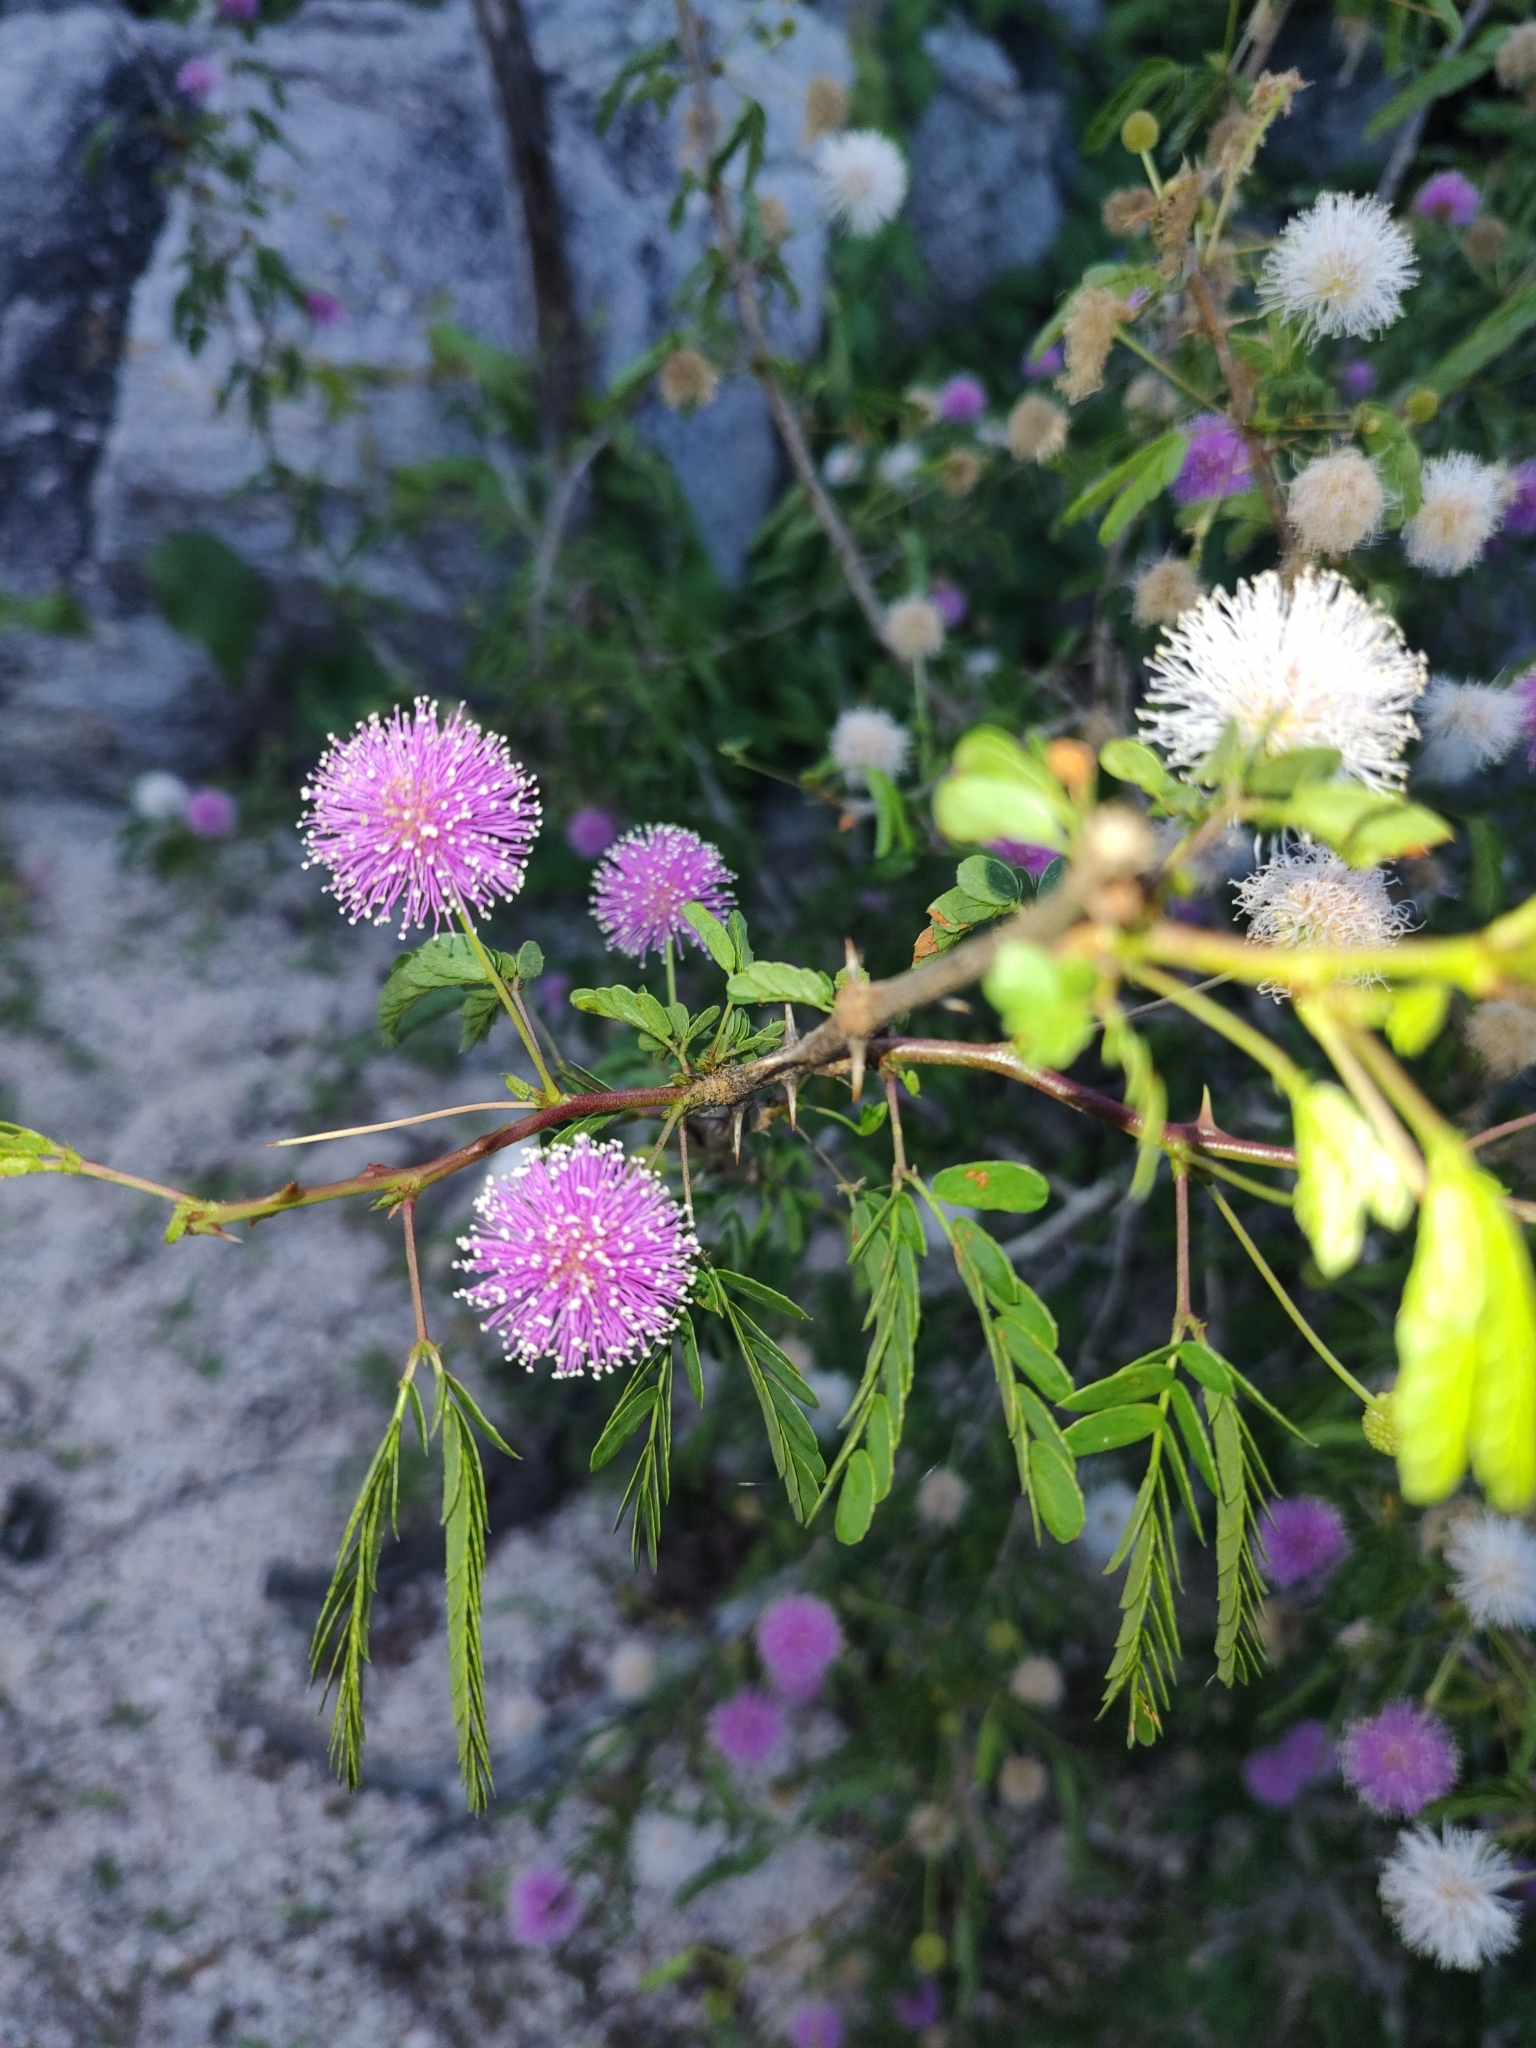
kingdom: Plantae
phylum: Tracheophyta
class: Magnoliopsida
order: Fabales
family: Fabaceae
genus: Mimosa
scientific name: Mimosa tricephala
